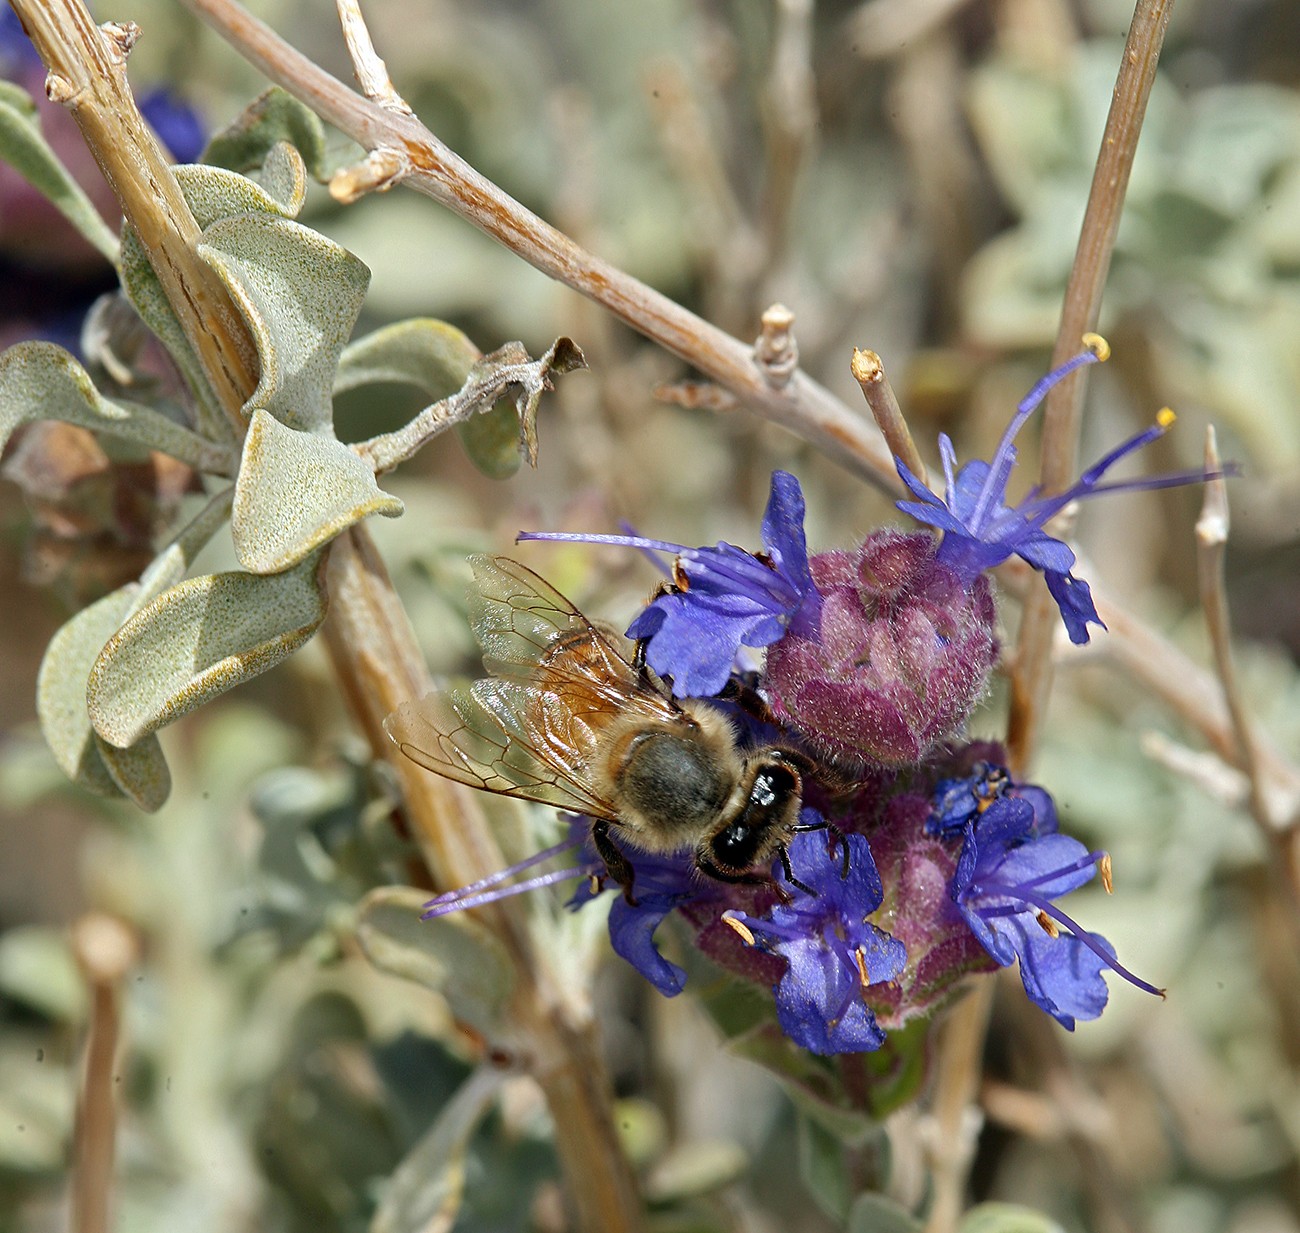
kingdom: Plantae
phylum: Tracheophyta
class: Magnoliopsida
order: Lamiales
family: Lamiaceae
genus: Salvia
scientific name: Salvia dorrii
